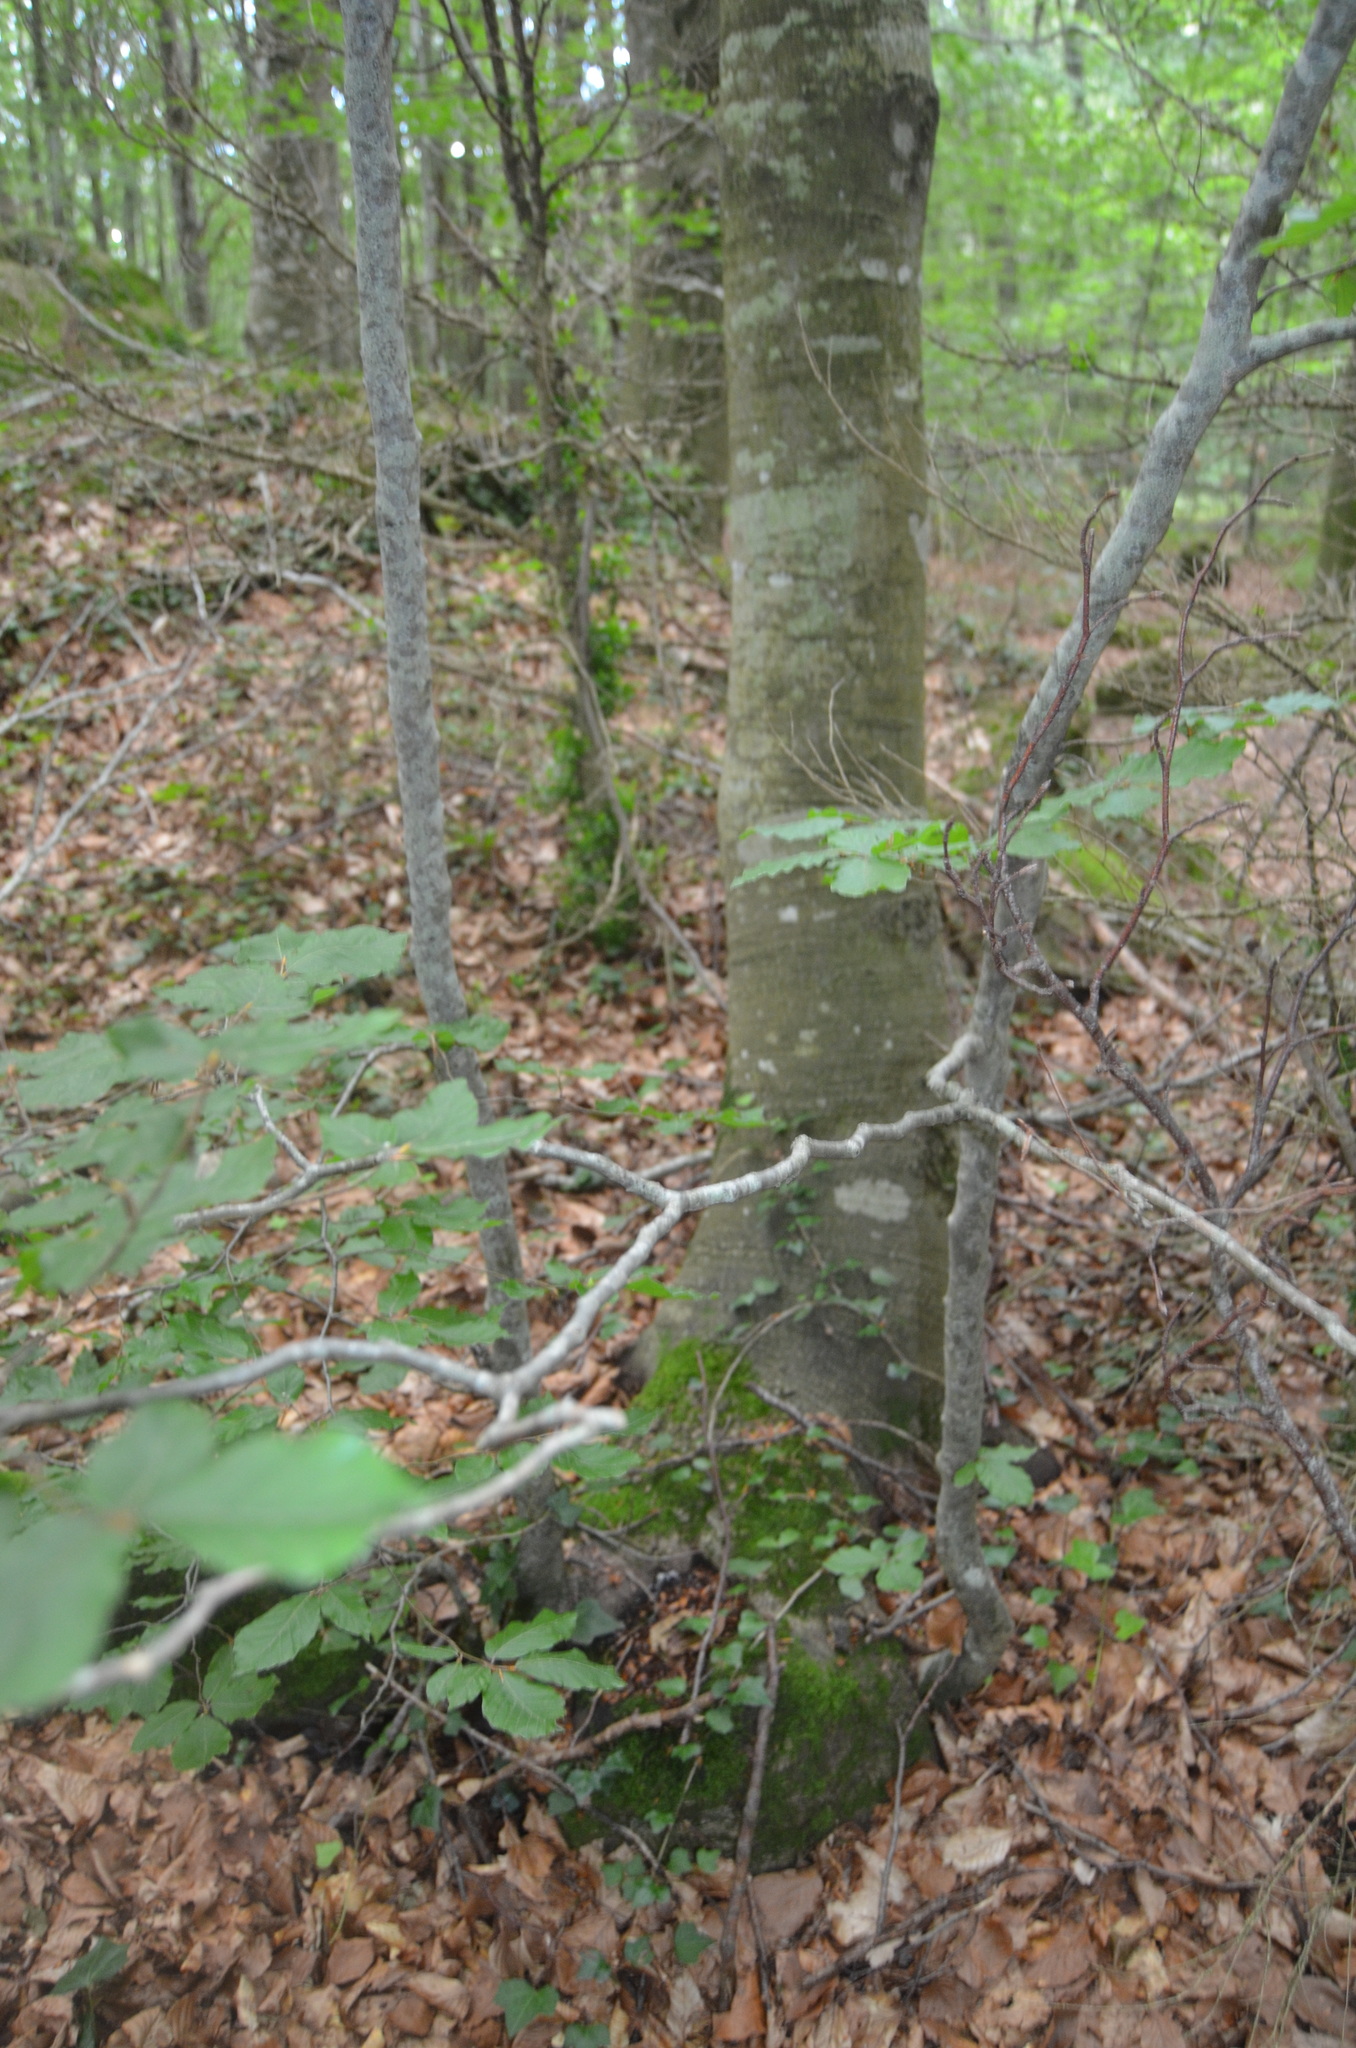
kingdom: Plantae
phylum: Tracheophyta
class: Magnoliopsida
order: Fagales
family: Fagaceae
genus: Fagus
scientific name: Fagus sylvatica
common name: Beech
